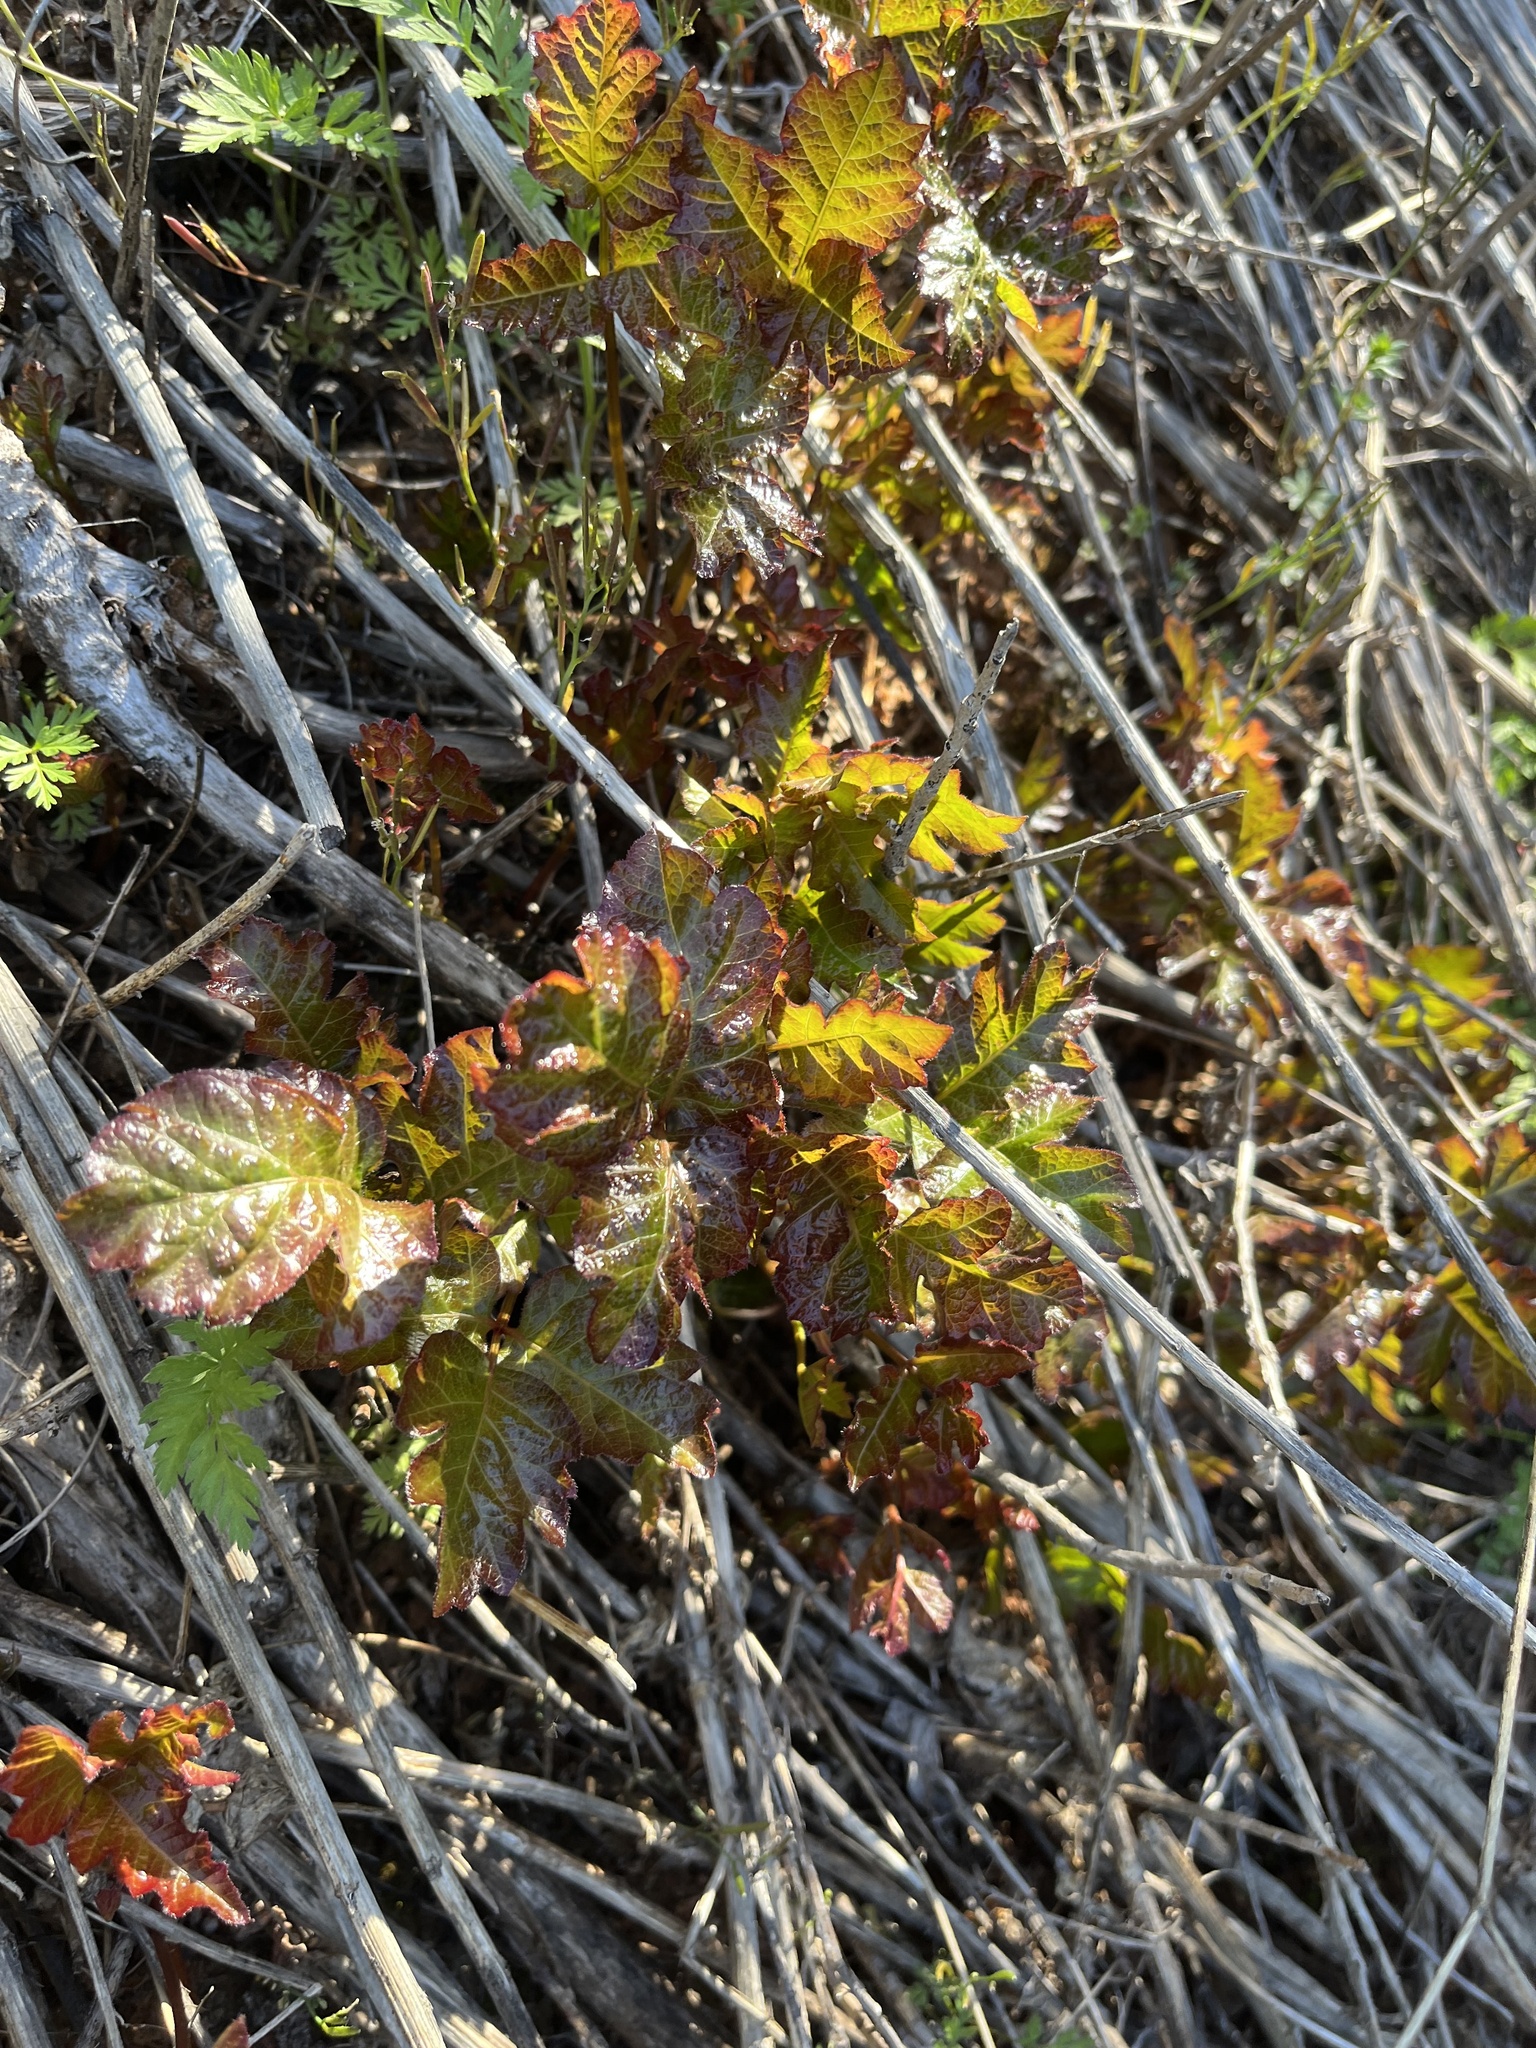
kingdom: Plantae
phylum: Tracheophyta
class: Magnoliopsida
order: Sapindales
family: Anacardiaceae
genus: Toxicodendron
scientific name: Toxicodendron diversilobum
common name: Pacific poison-oak
